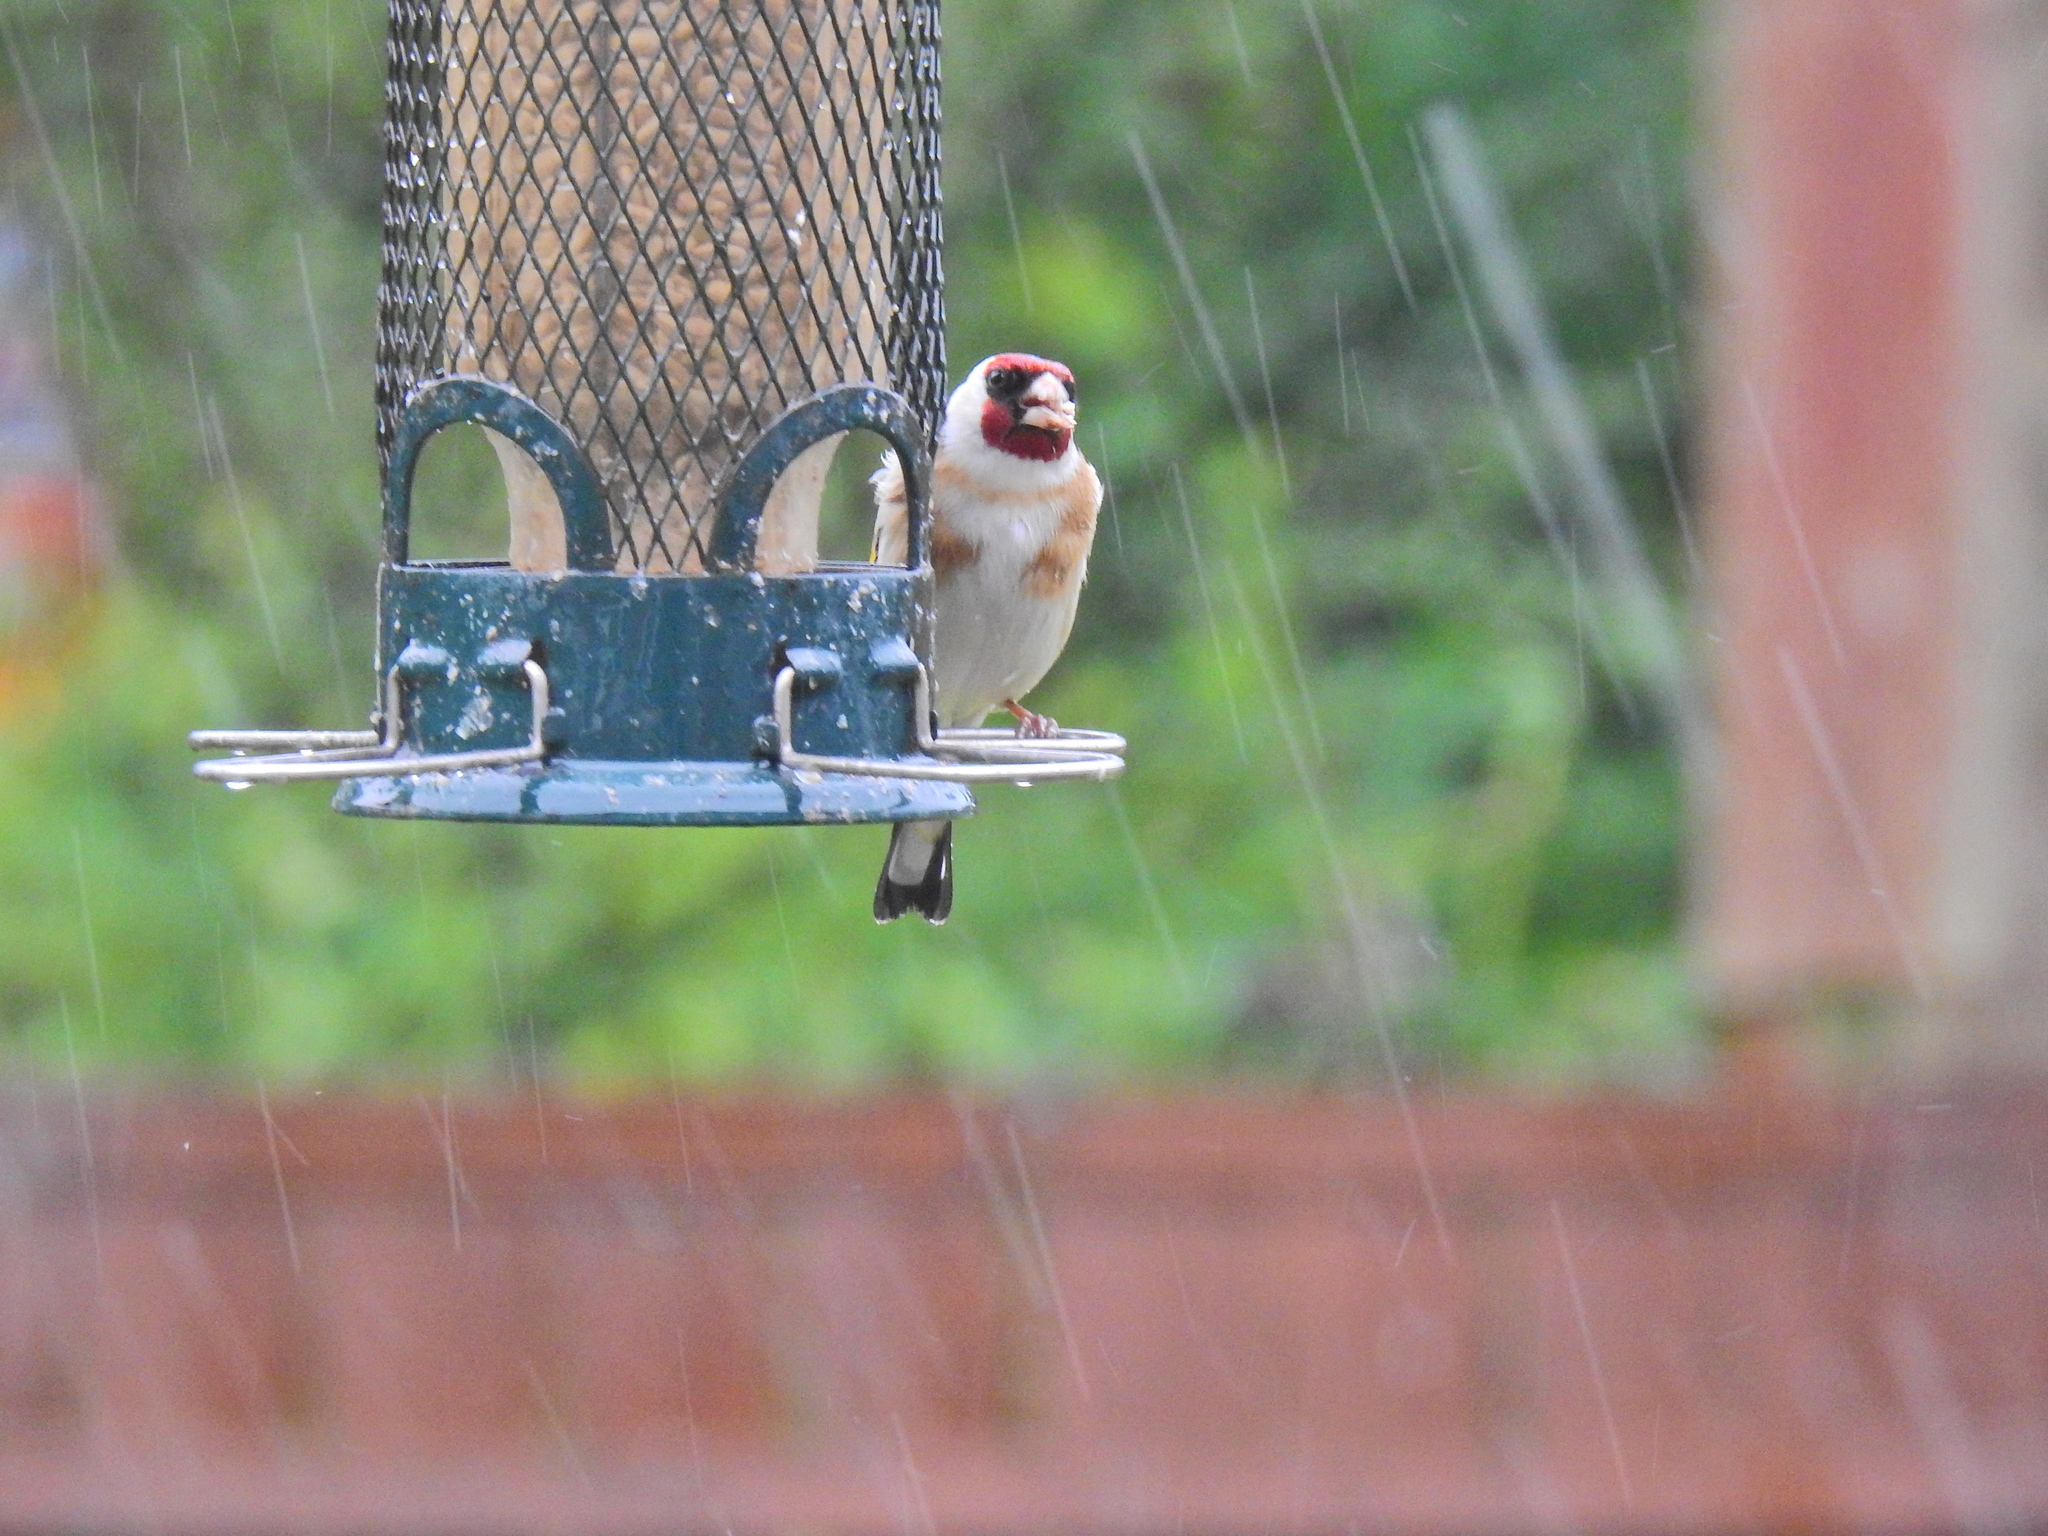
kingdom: Animalia
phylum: Chordata
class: Aves
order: Passeriformes
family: Fringillidae
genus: Carduelis
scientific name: Carduelis carduelis
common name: European goldfinch
